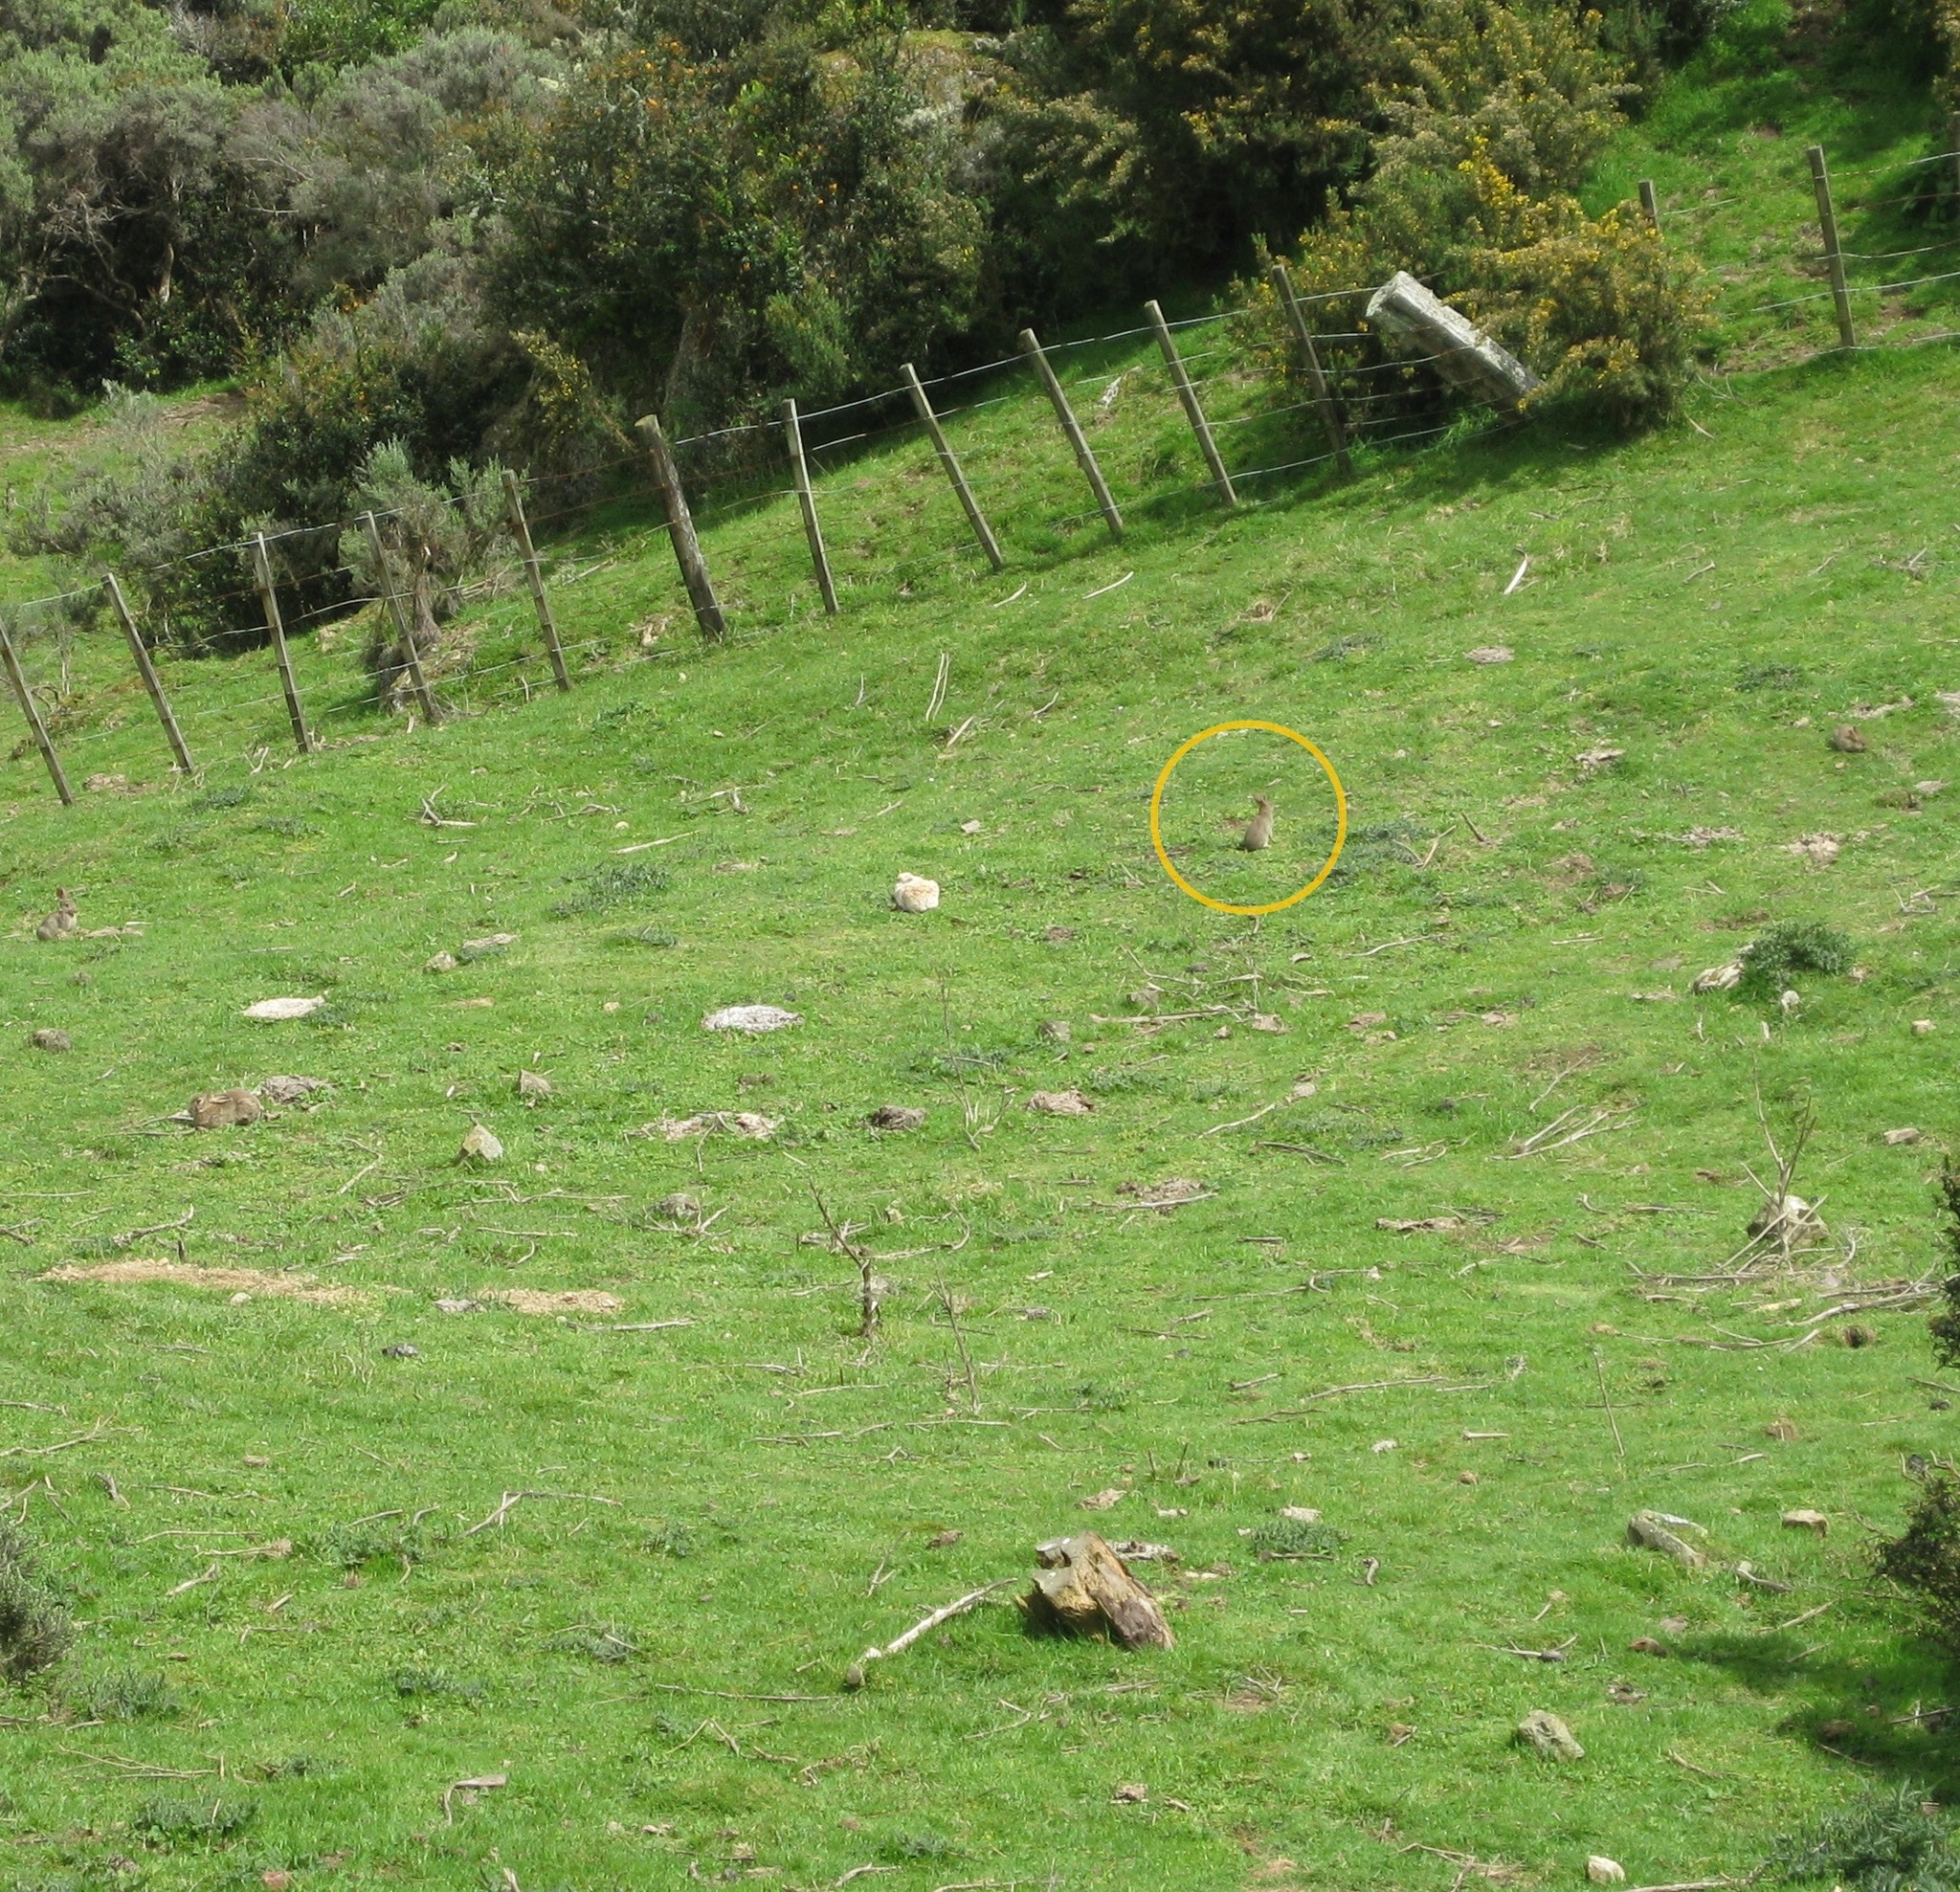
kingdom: Animalia
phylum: Chordata
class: Mammalia
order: Lagomorpha
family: Leporidae
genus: Oryctolagus
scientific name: Oryctolagus cuniculus
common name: European rabbit
